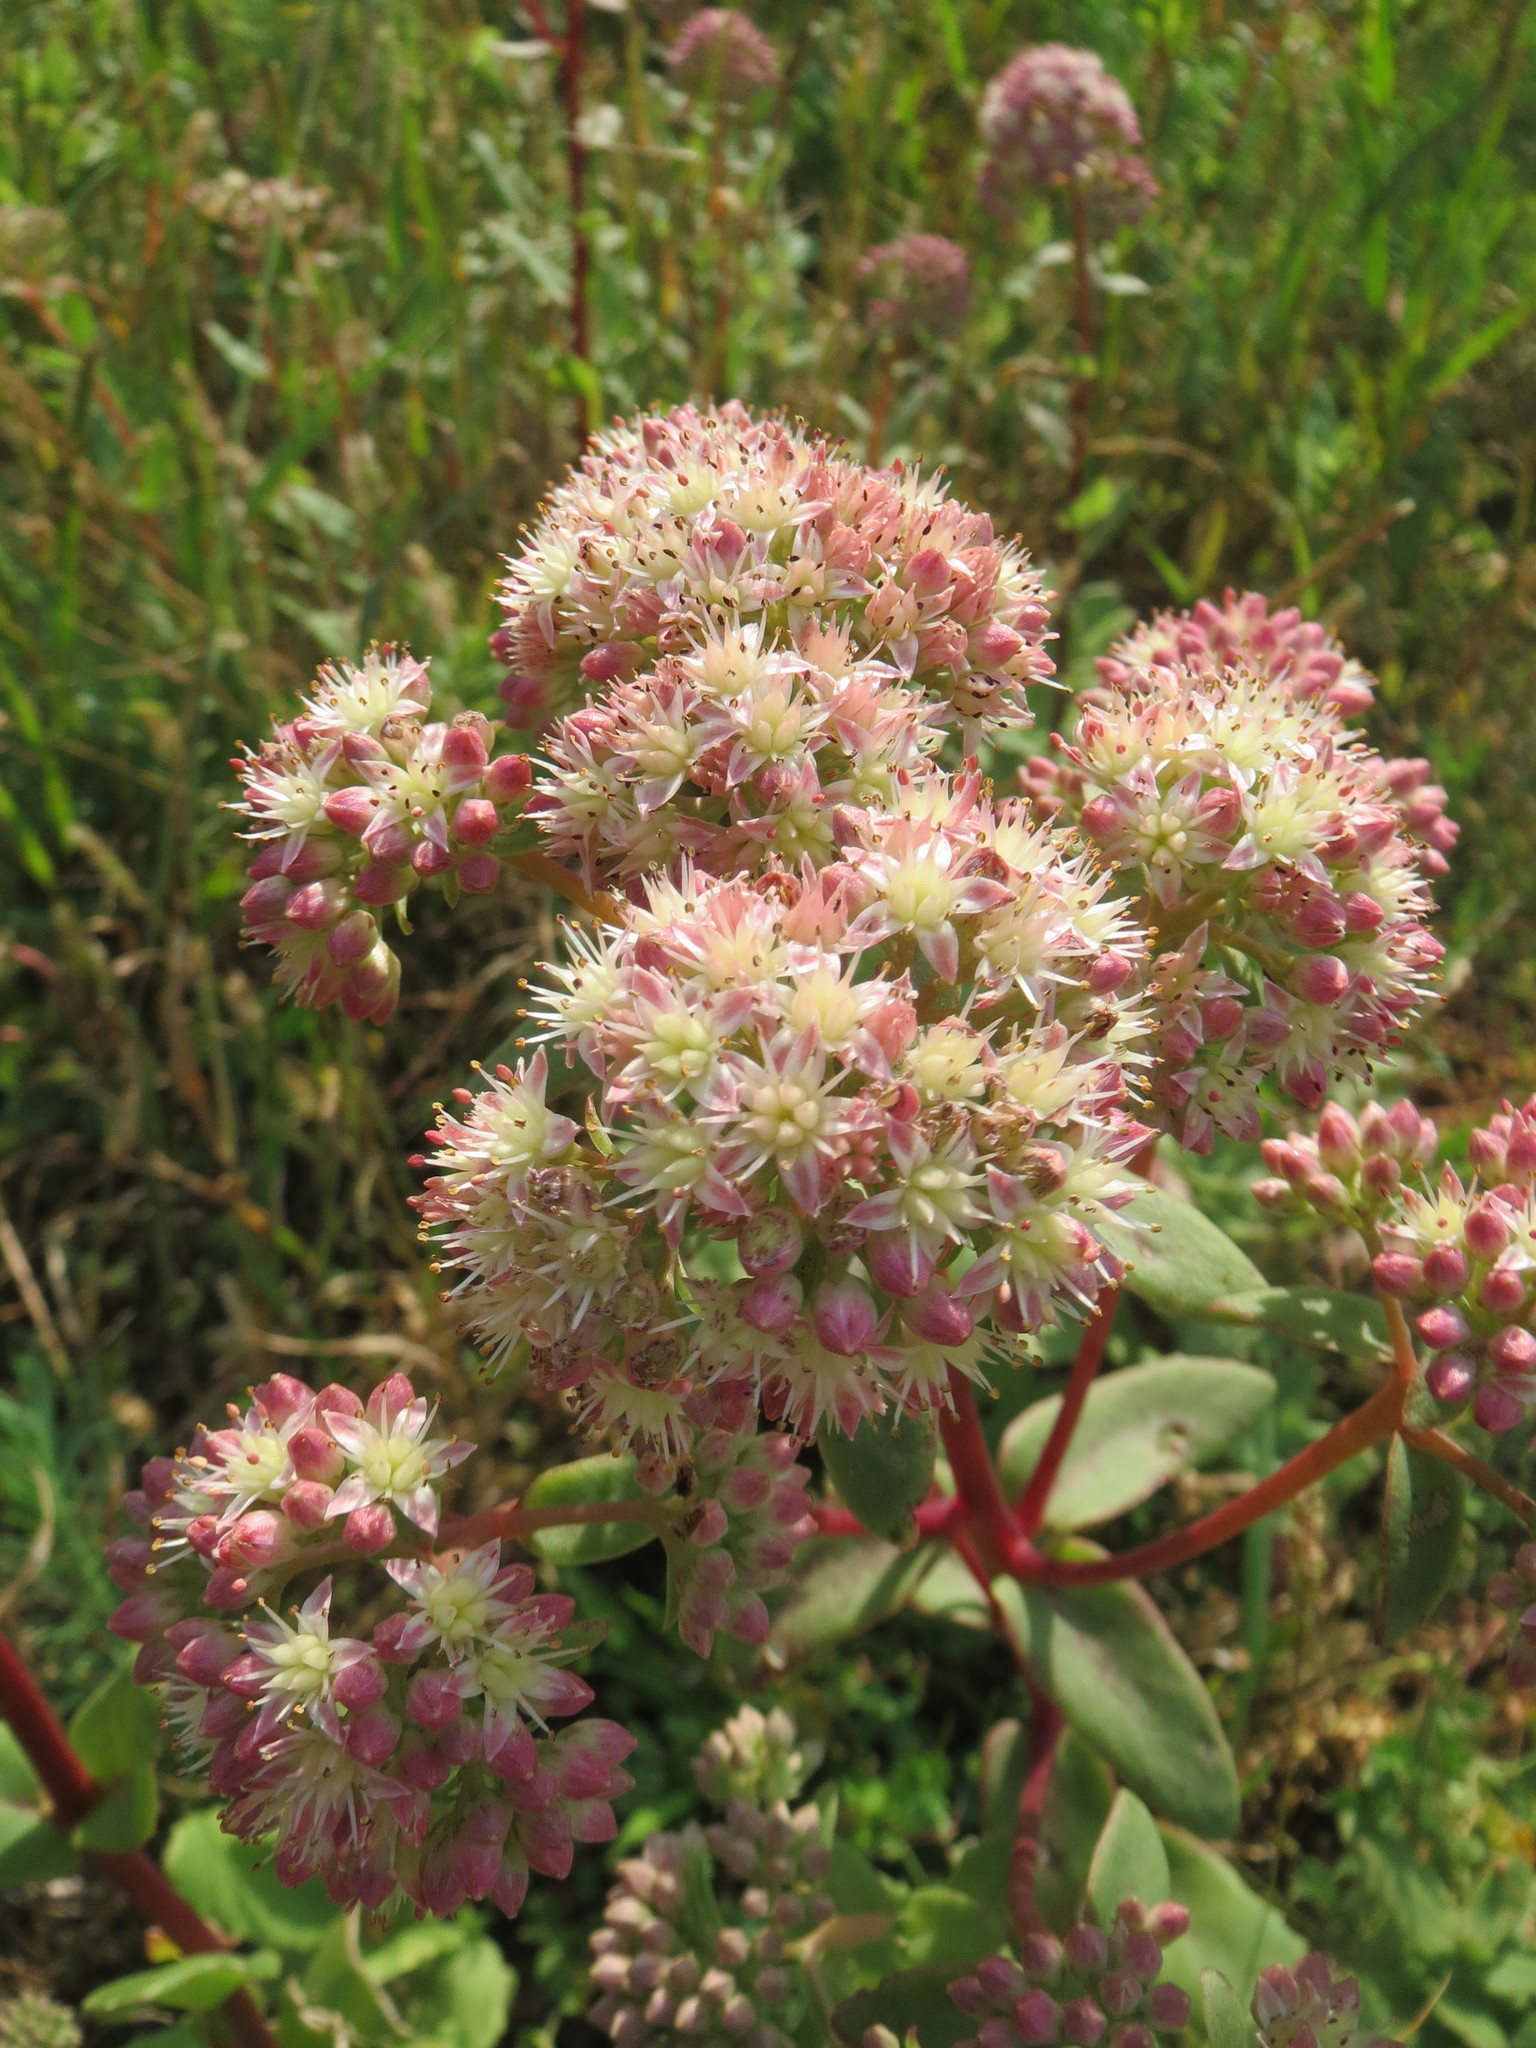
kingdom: Plantae
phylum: Tracheophyta
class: Magnoliopsida
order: Saxifragales
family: Crassulaceae
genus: Hylotelephium
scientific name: Hylotelephium telephium
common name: Live-forever
